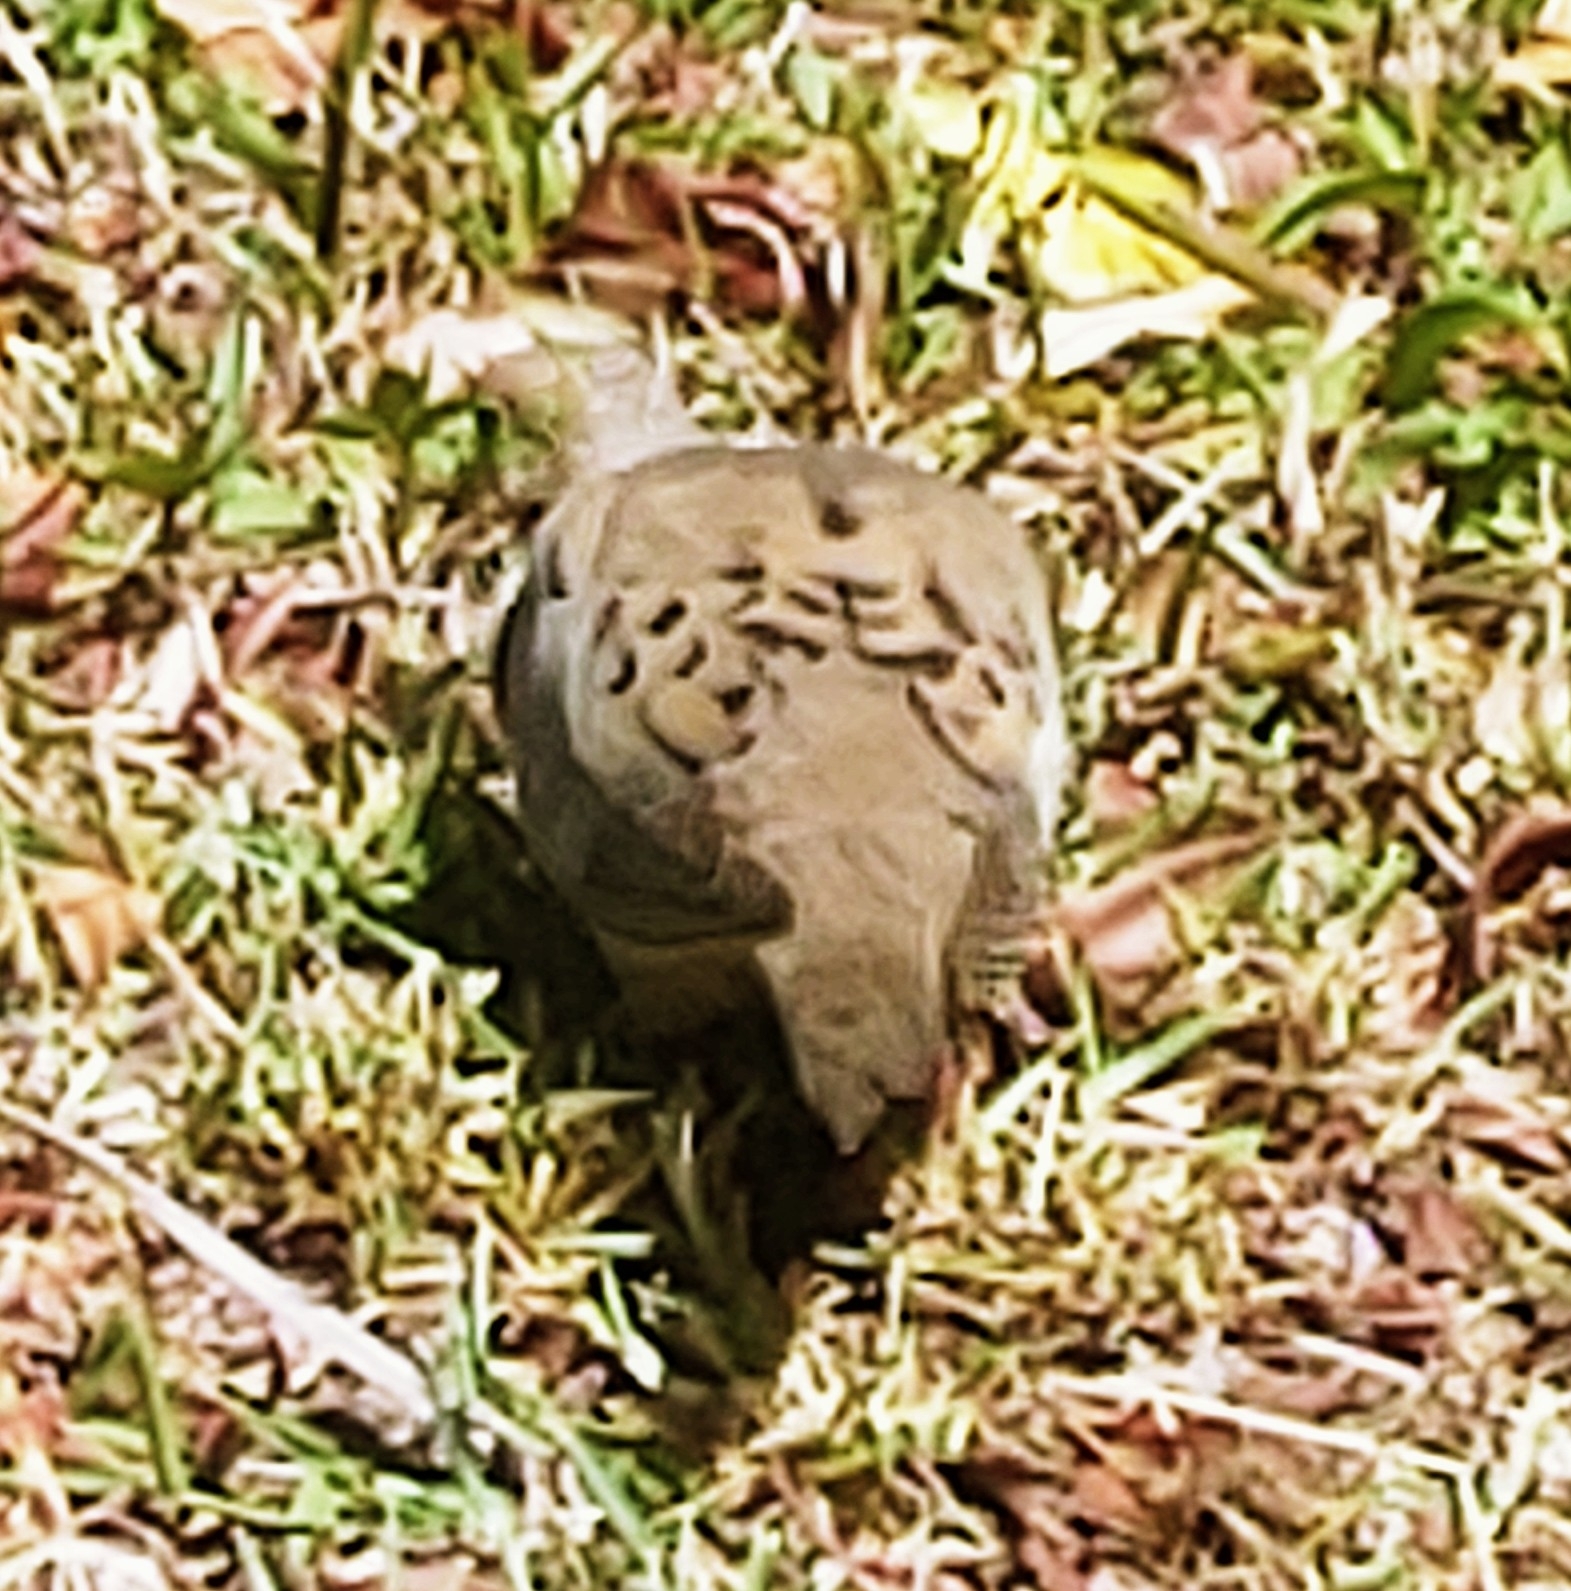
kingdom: Animalia
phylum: Chordata
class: Aves
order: Columbiformes
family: Columbidae
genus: Zenaida
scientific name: Zenaida macroura
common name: Mourning dove
